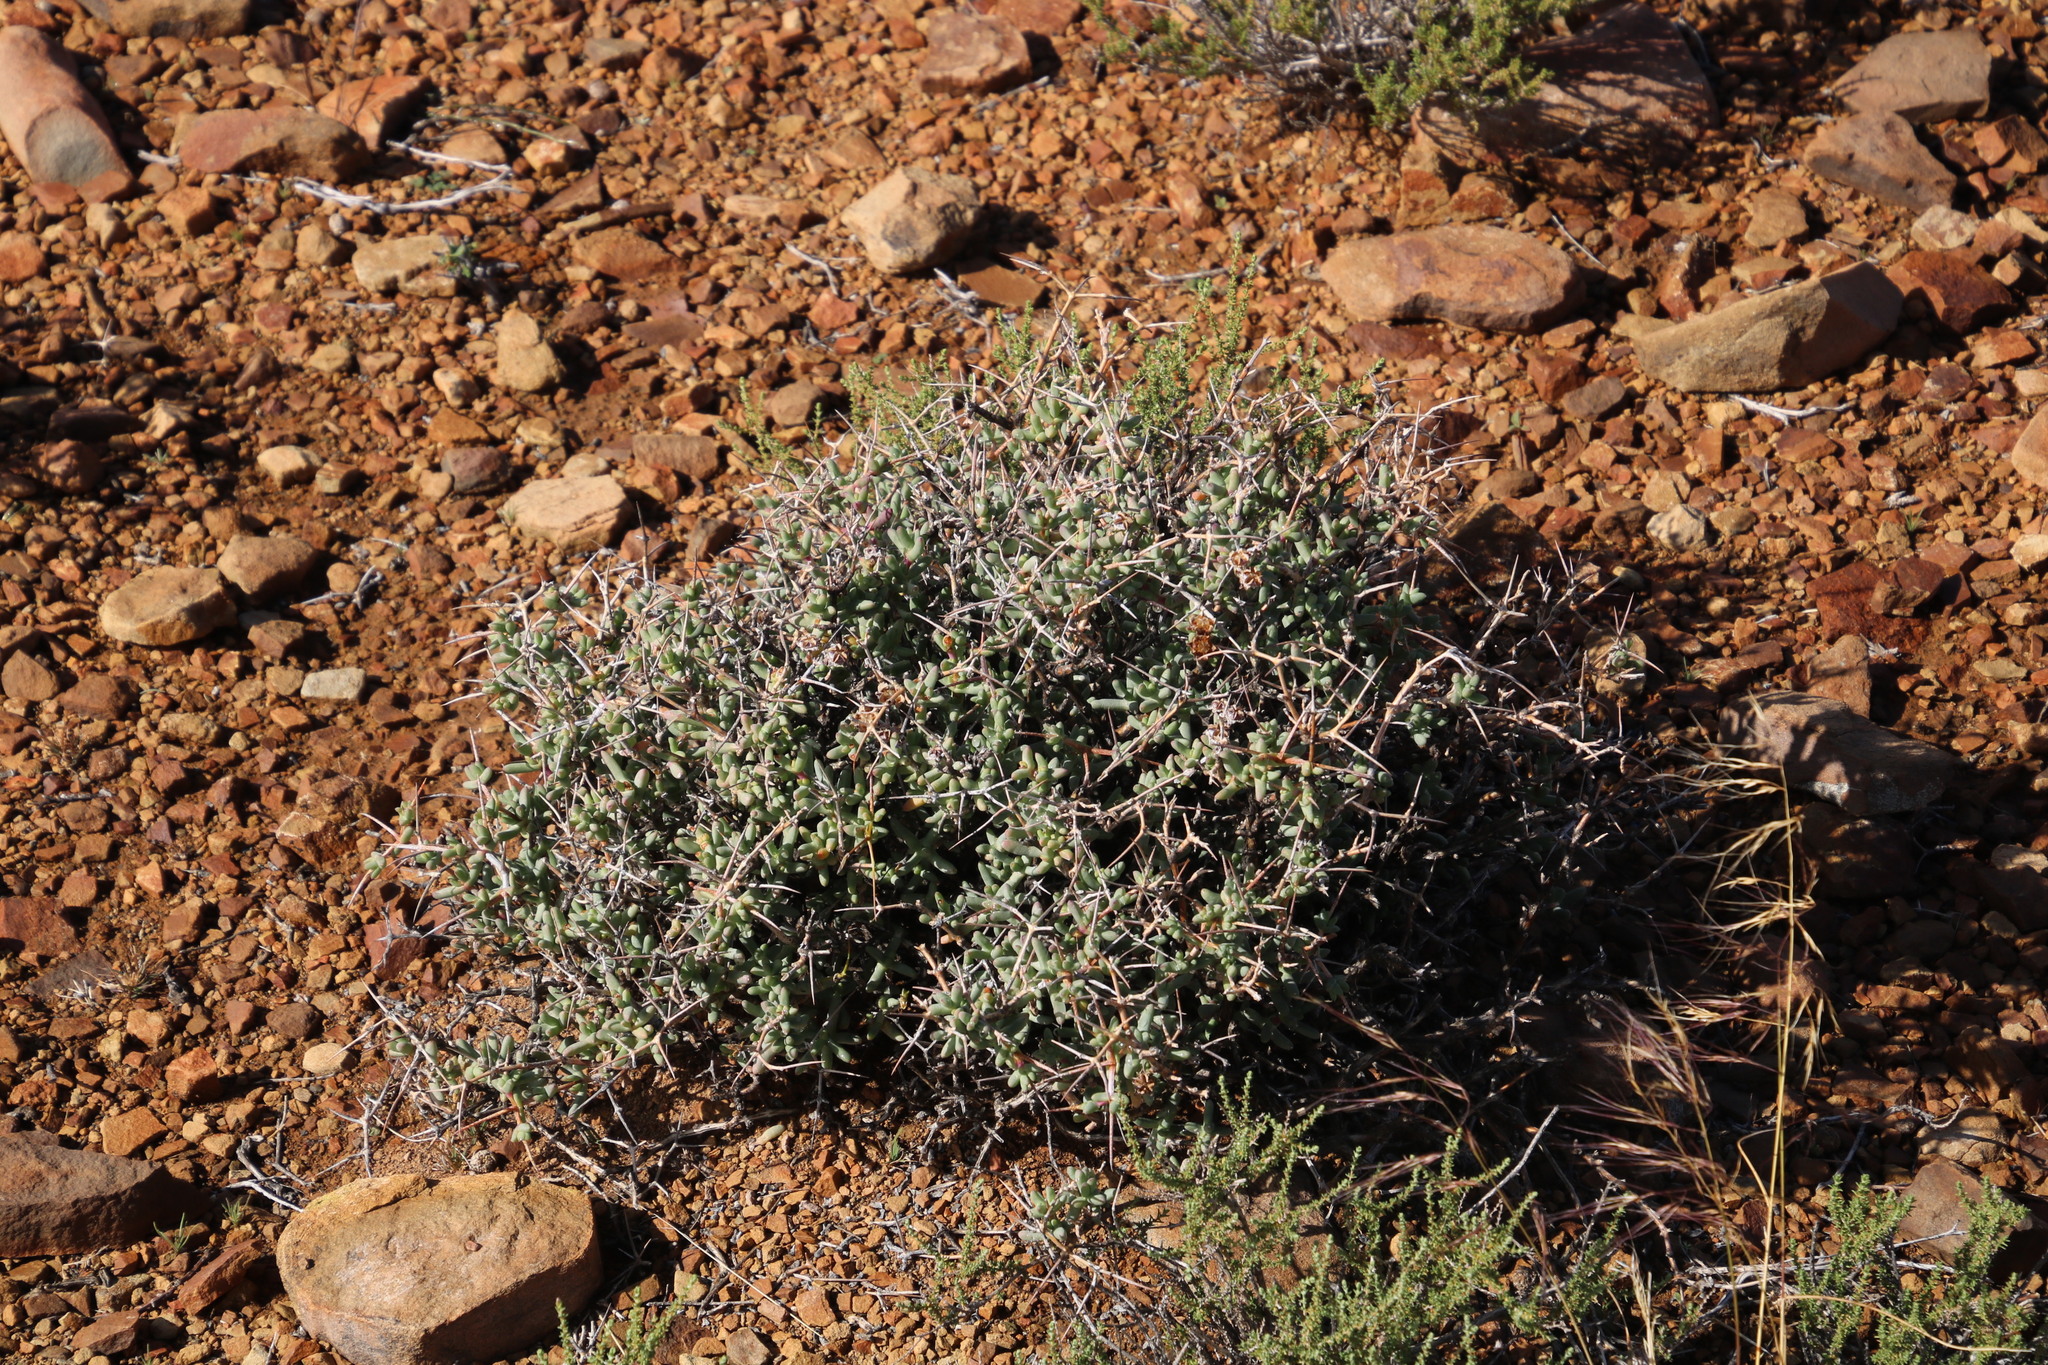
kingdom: Plantae
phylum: Tracheophyta
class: Magnoliopsida
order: Caryophyllales
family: Aizoaceae
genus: Ruschia
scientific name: Ruschia intricata
